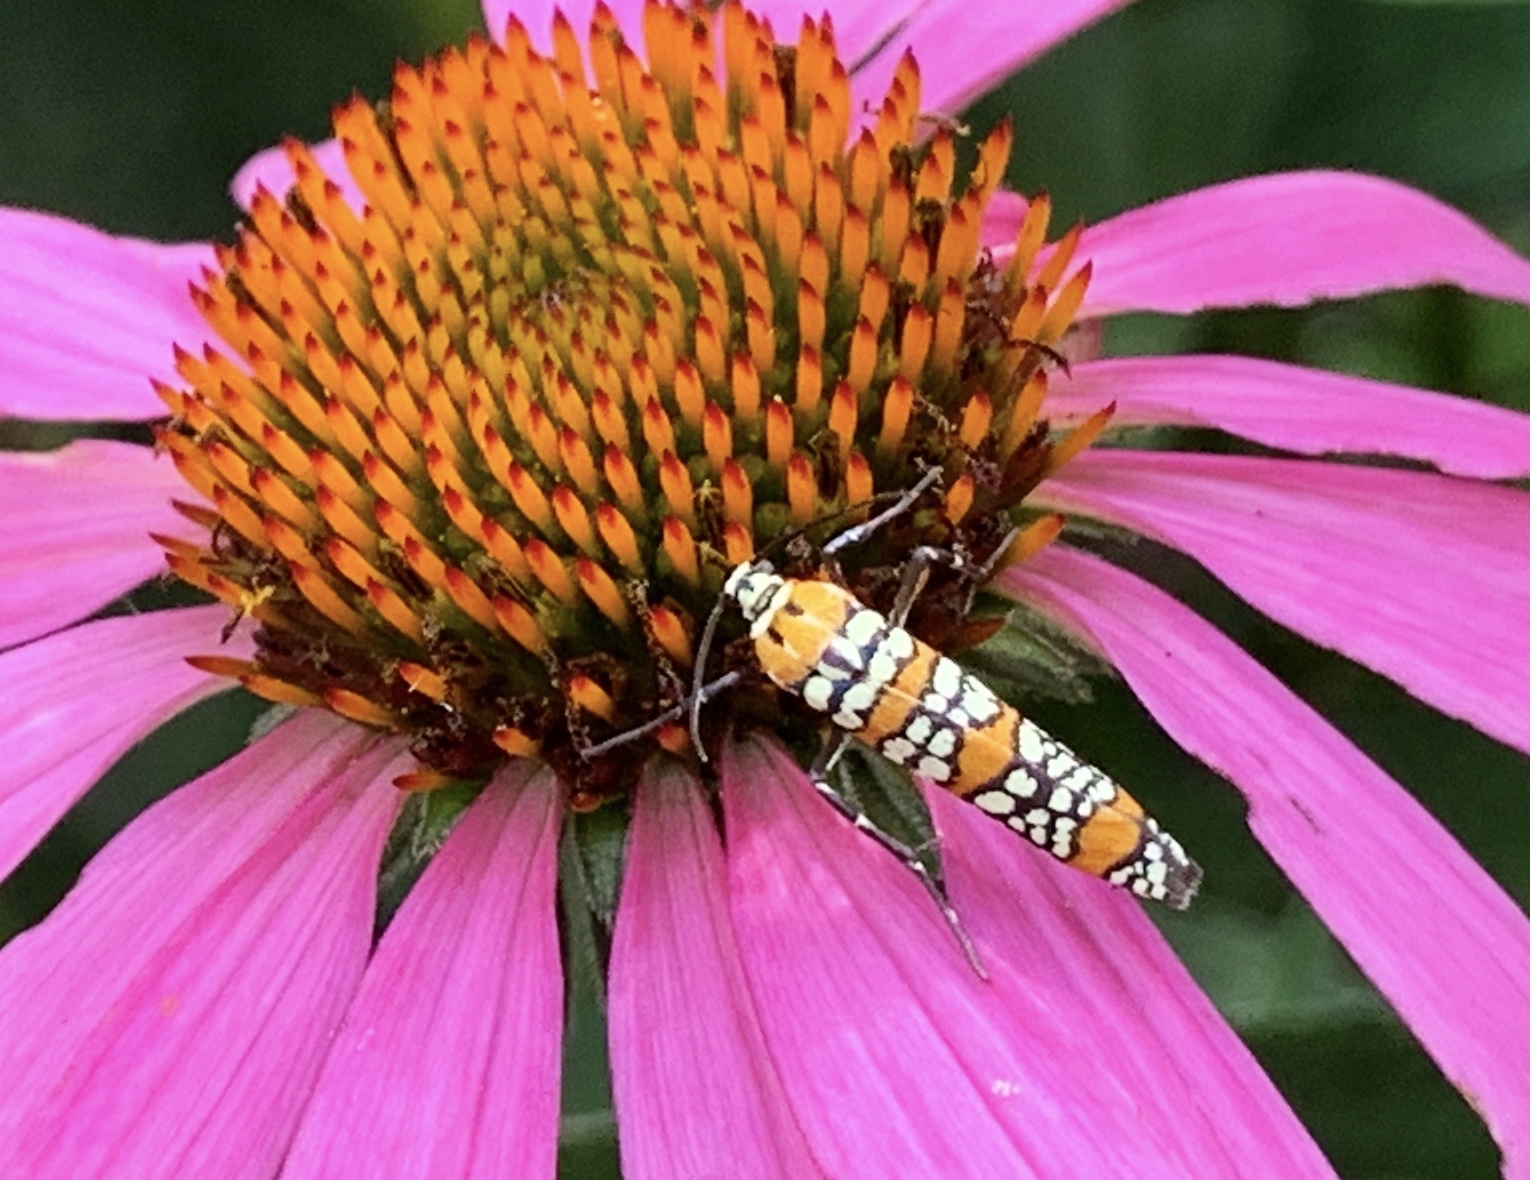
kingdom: Animalia
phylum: Arthropoda
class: Insecta
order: Lepidoptera
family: Attevidae
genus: Atteva
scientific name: Atteva punctella
